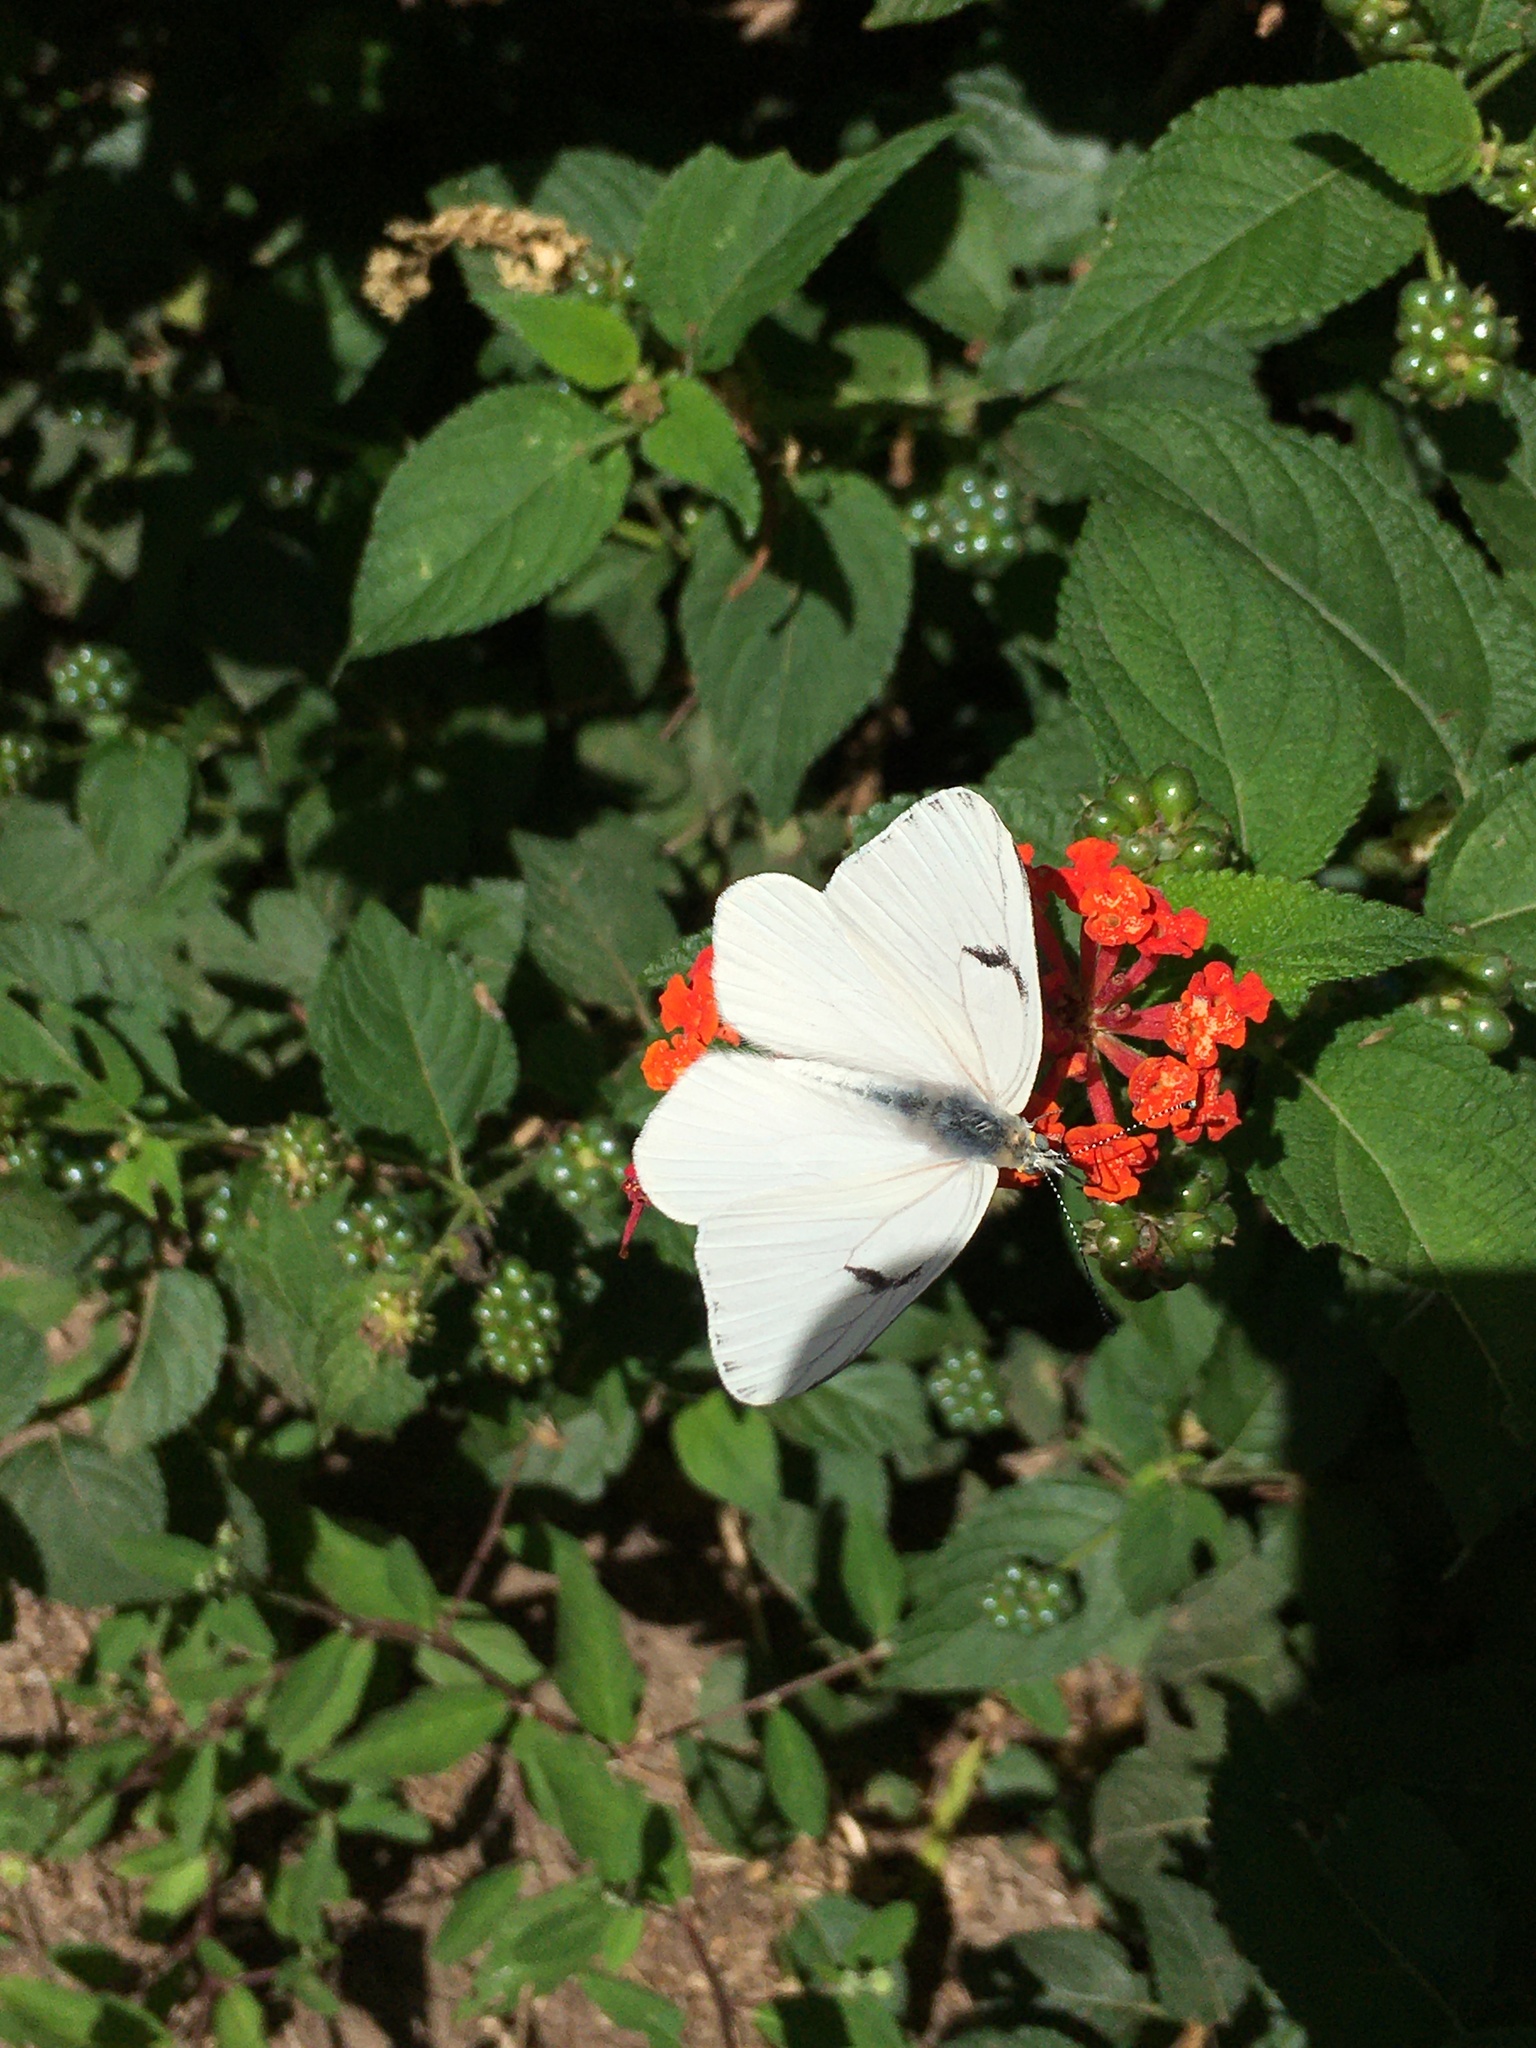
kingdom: Animalia
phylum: Arthropoda
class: Insecta
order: Lepidoptera
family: Pieridae
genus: Tatochila
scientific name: Tatochila mercedis
